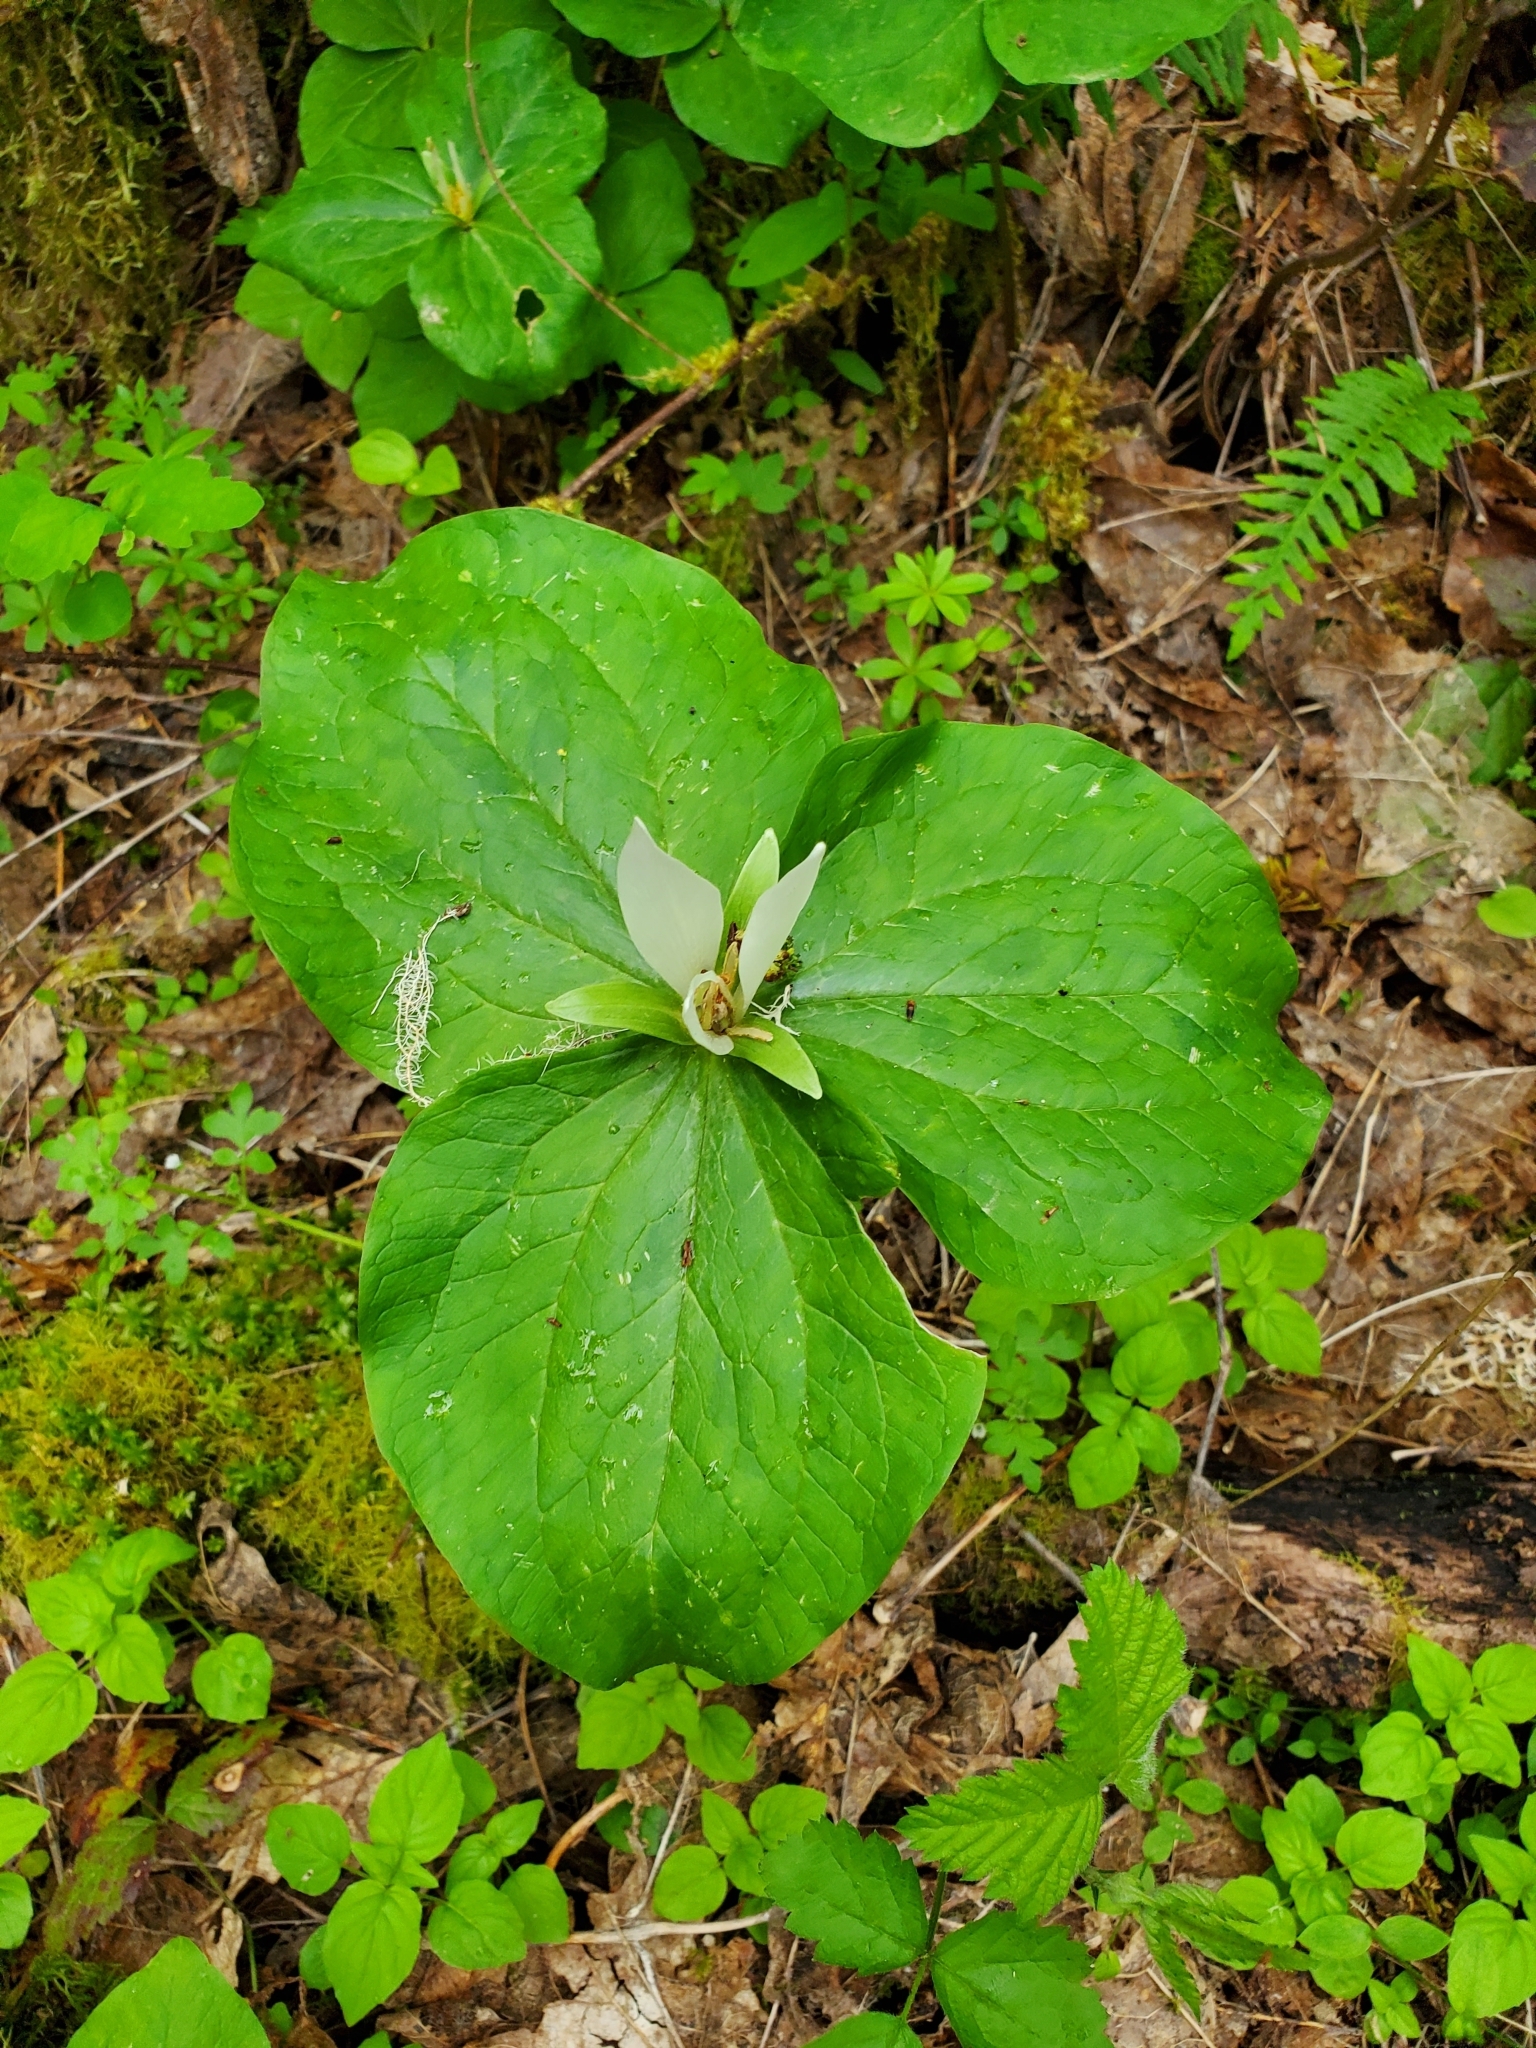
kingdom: Plantae
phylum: Tracheophyta
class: Liliopsida
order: Liliales
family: Melanthiaceae
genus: Trillium
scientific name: Trillium albidum
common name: Freeman's trillium
